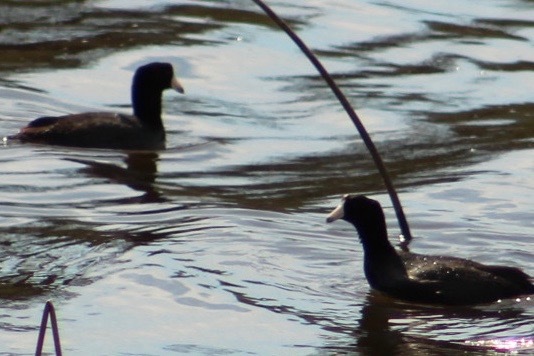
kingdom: Animalia
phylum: Chordata
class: Aves
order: Gruiformes
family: Rallidae
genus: Fulica
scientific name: Fulica americana
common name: American coot
